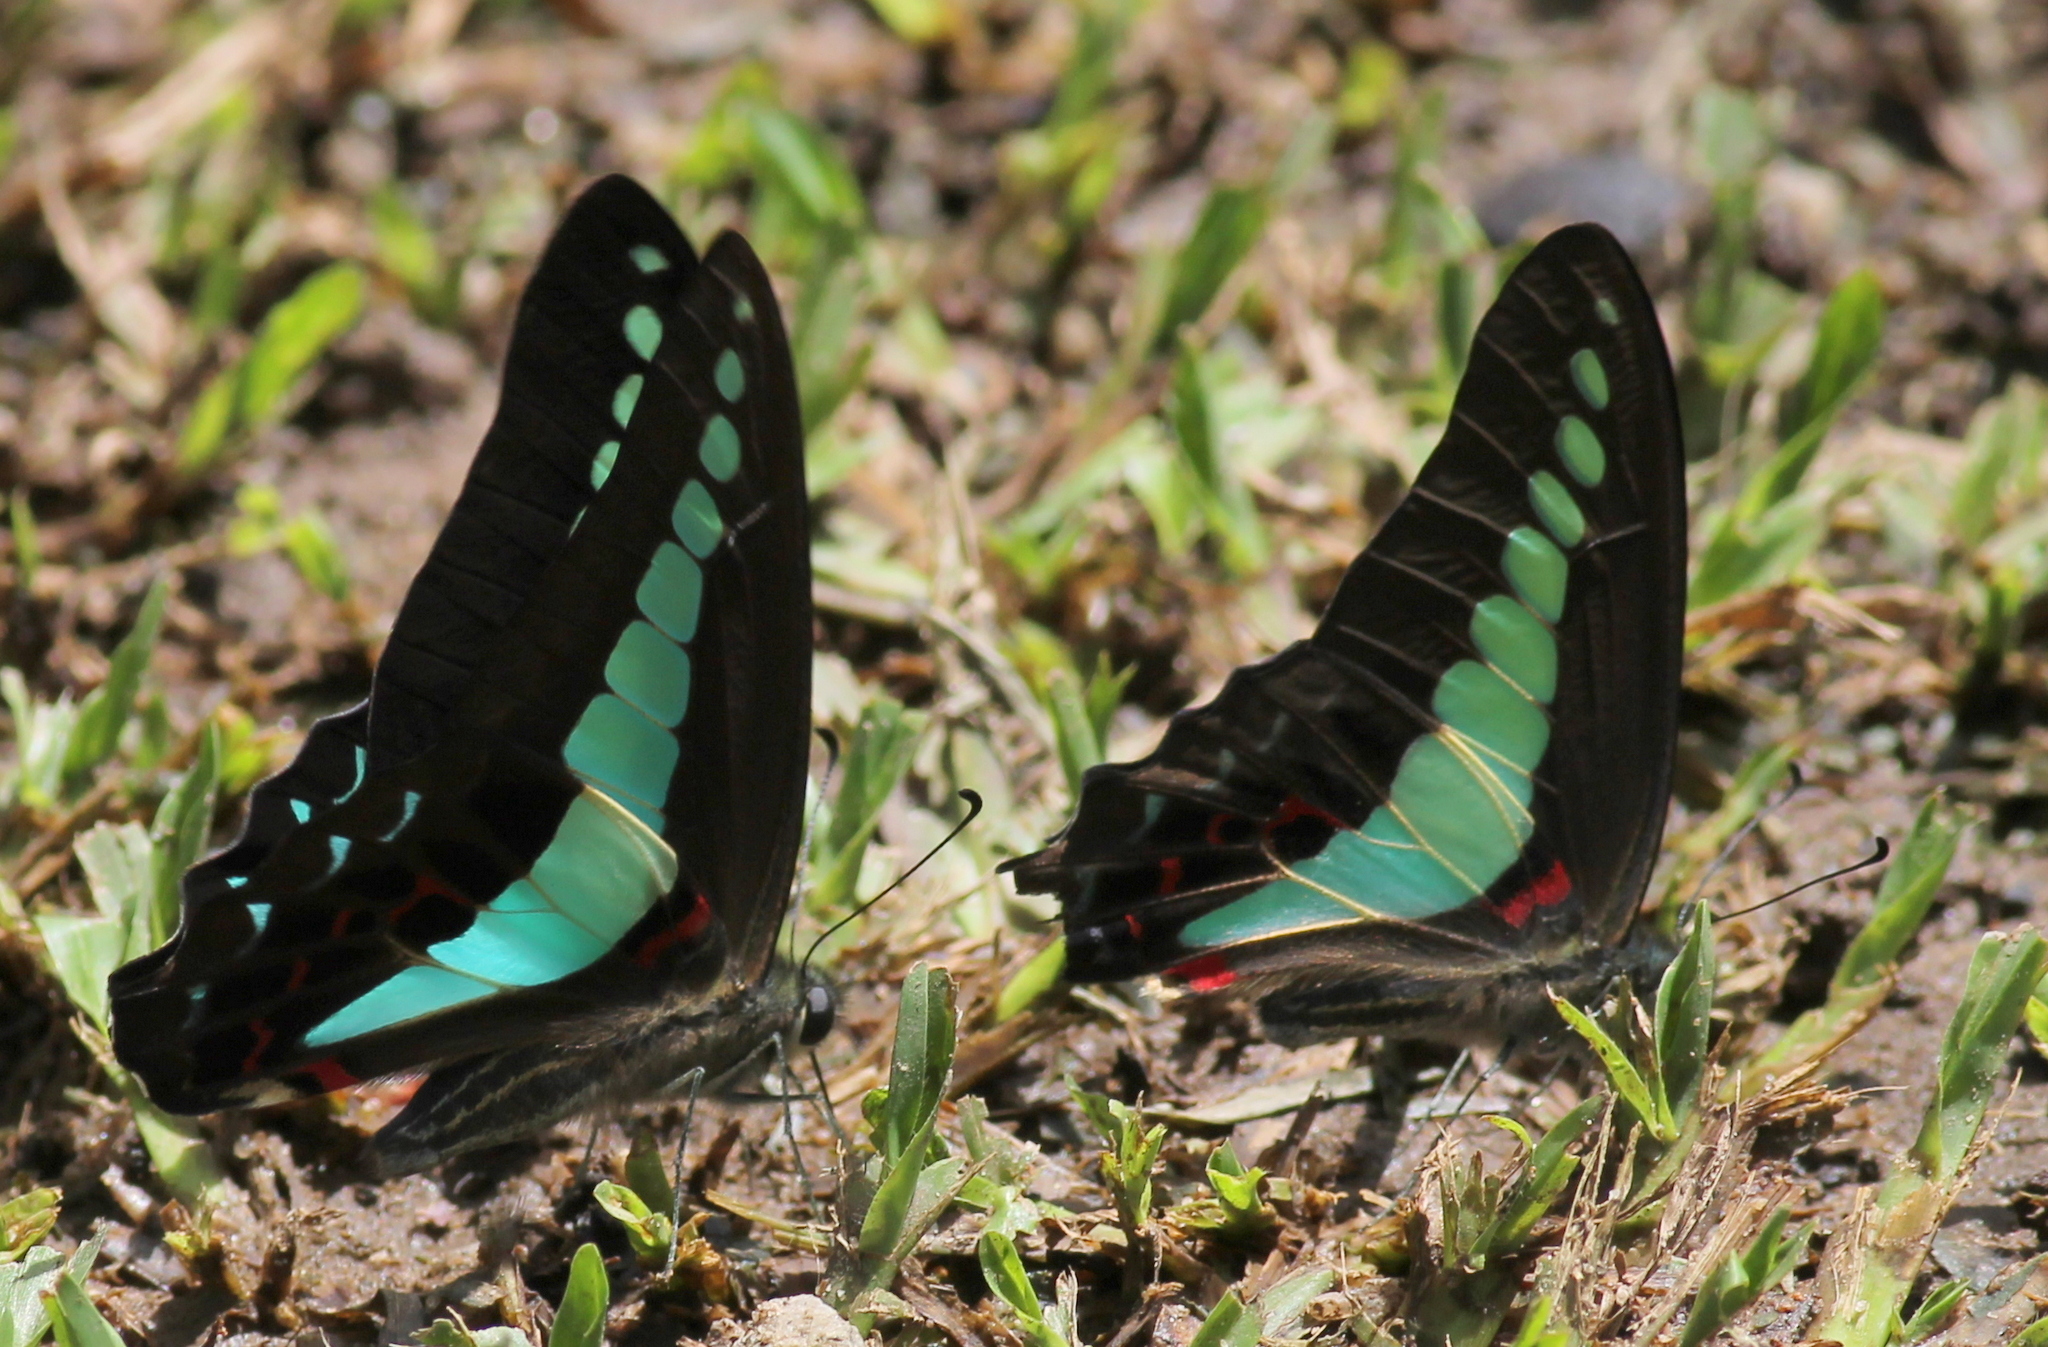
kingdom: Fungi
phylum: Ascomycota
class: Sordariomycetes
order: Microascales
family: Microascaceae
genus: Graphium
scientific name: Graphium sarpedon
